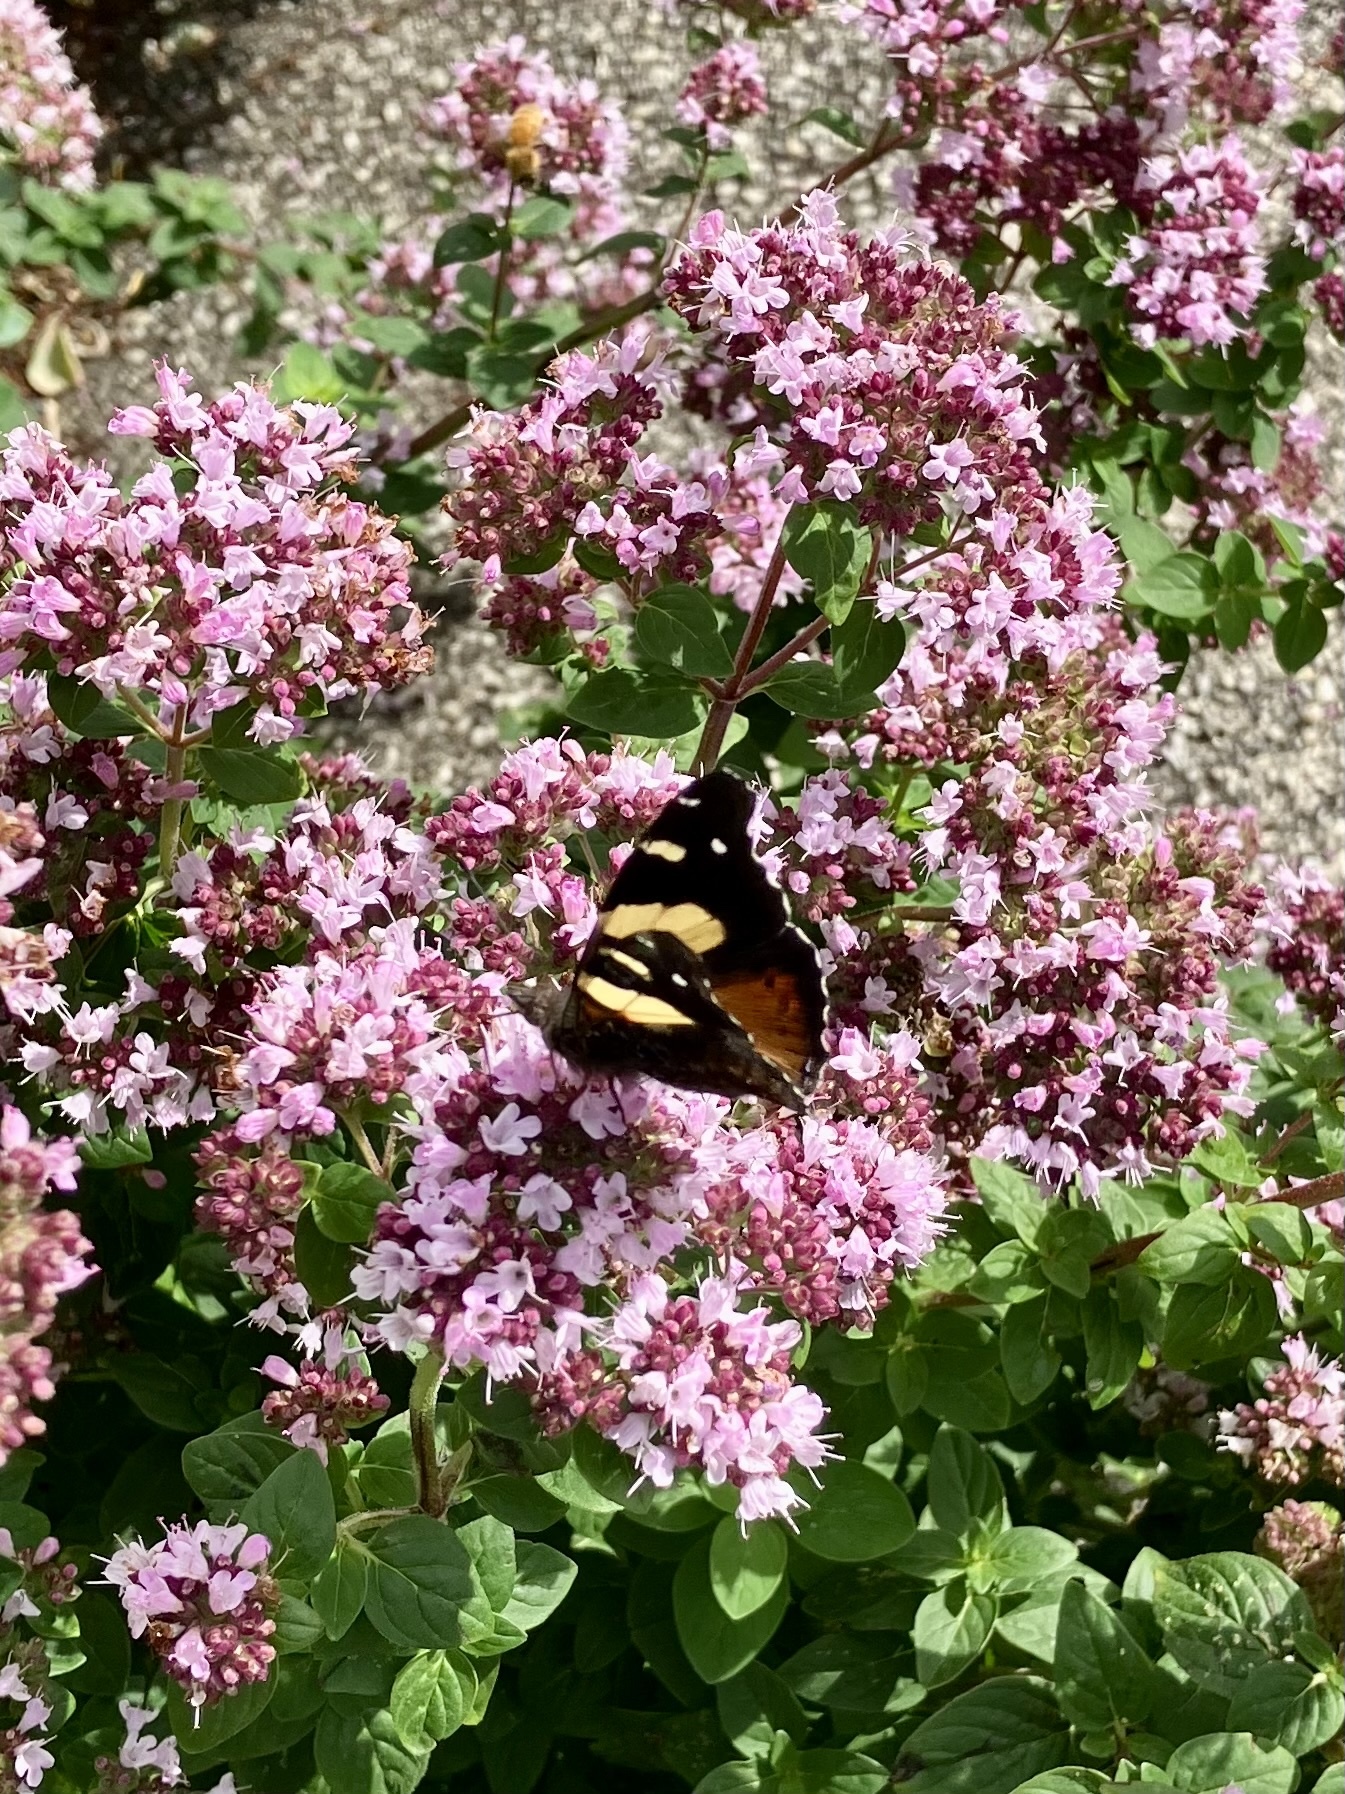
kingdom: Animalia
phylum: Arthropoda
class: Insecta
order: Lepidoptera
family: Nymphalidae
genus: Vanessa
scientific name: Vanessa itea
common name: Yellow admiral
